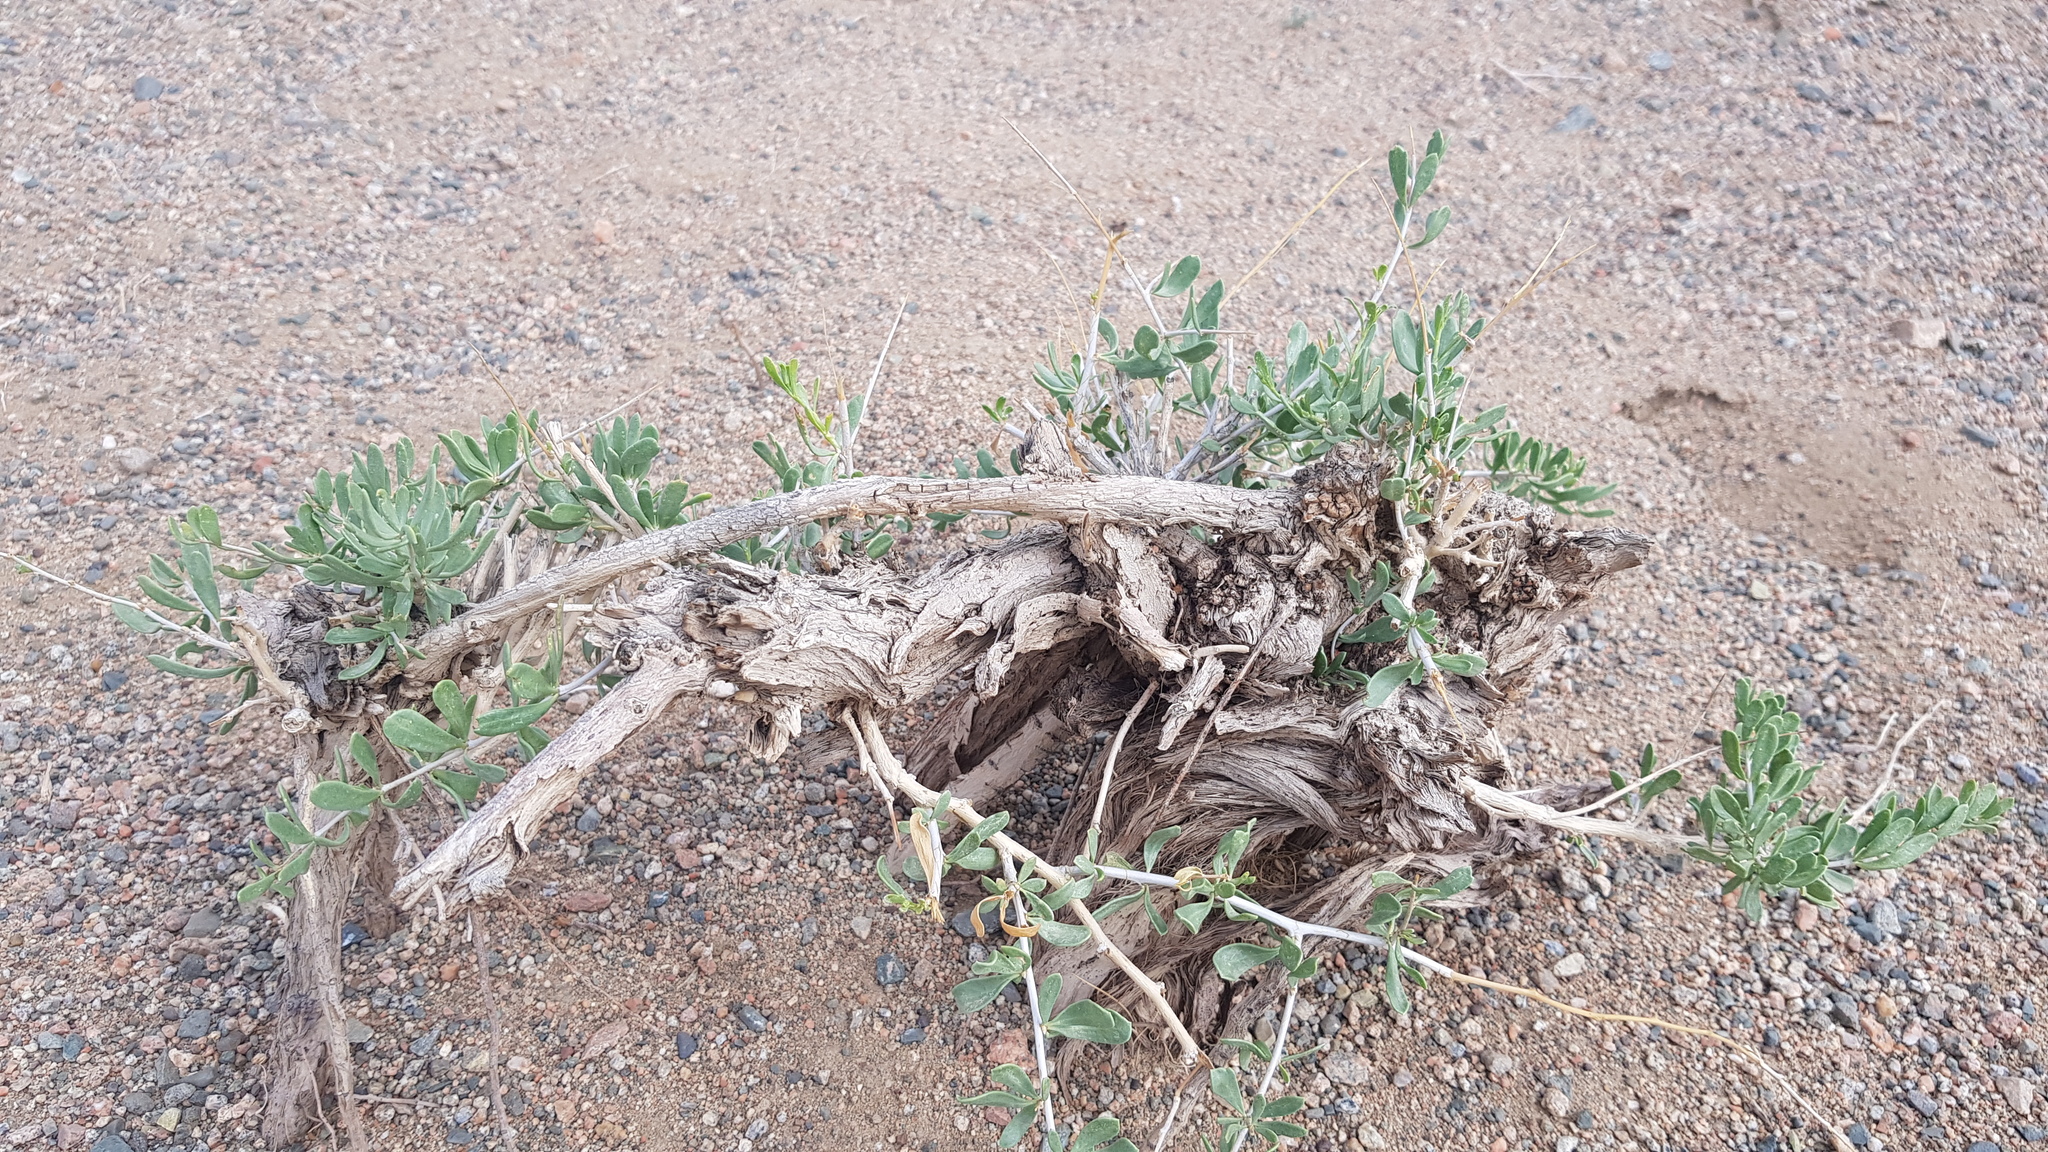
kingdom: Plantae
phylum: Tracheophyta
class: Magnoliopsida
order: Sapindales
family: Nitrariaceae
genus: Nitraria
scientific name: Nitraria sibirica
